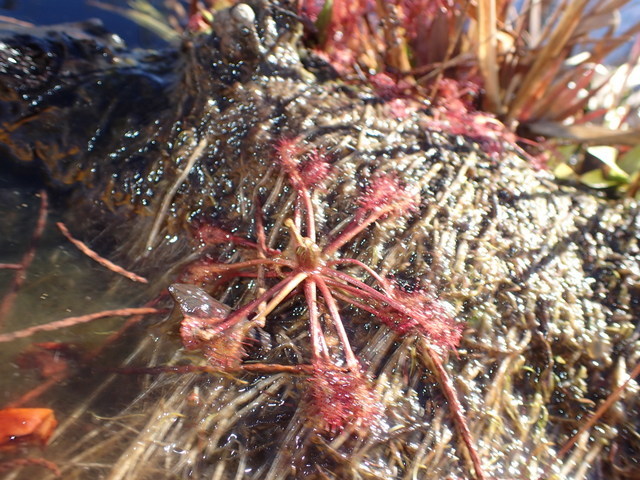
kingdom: Plantae
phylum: Tracheophyta
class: Magnoliopsida
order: Caryophyllales
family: Droseraceae
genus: Drosera
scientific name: Drosera capillaris
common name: Pink sundew
